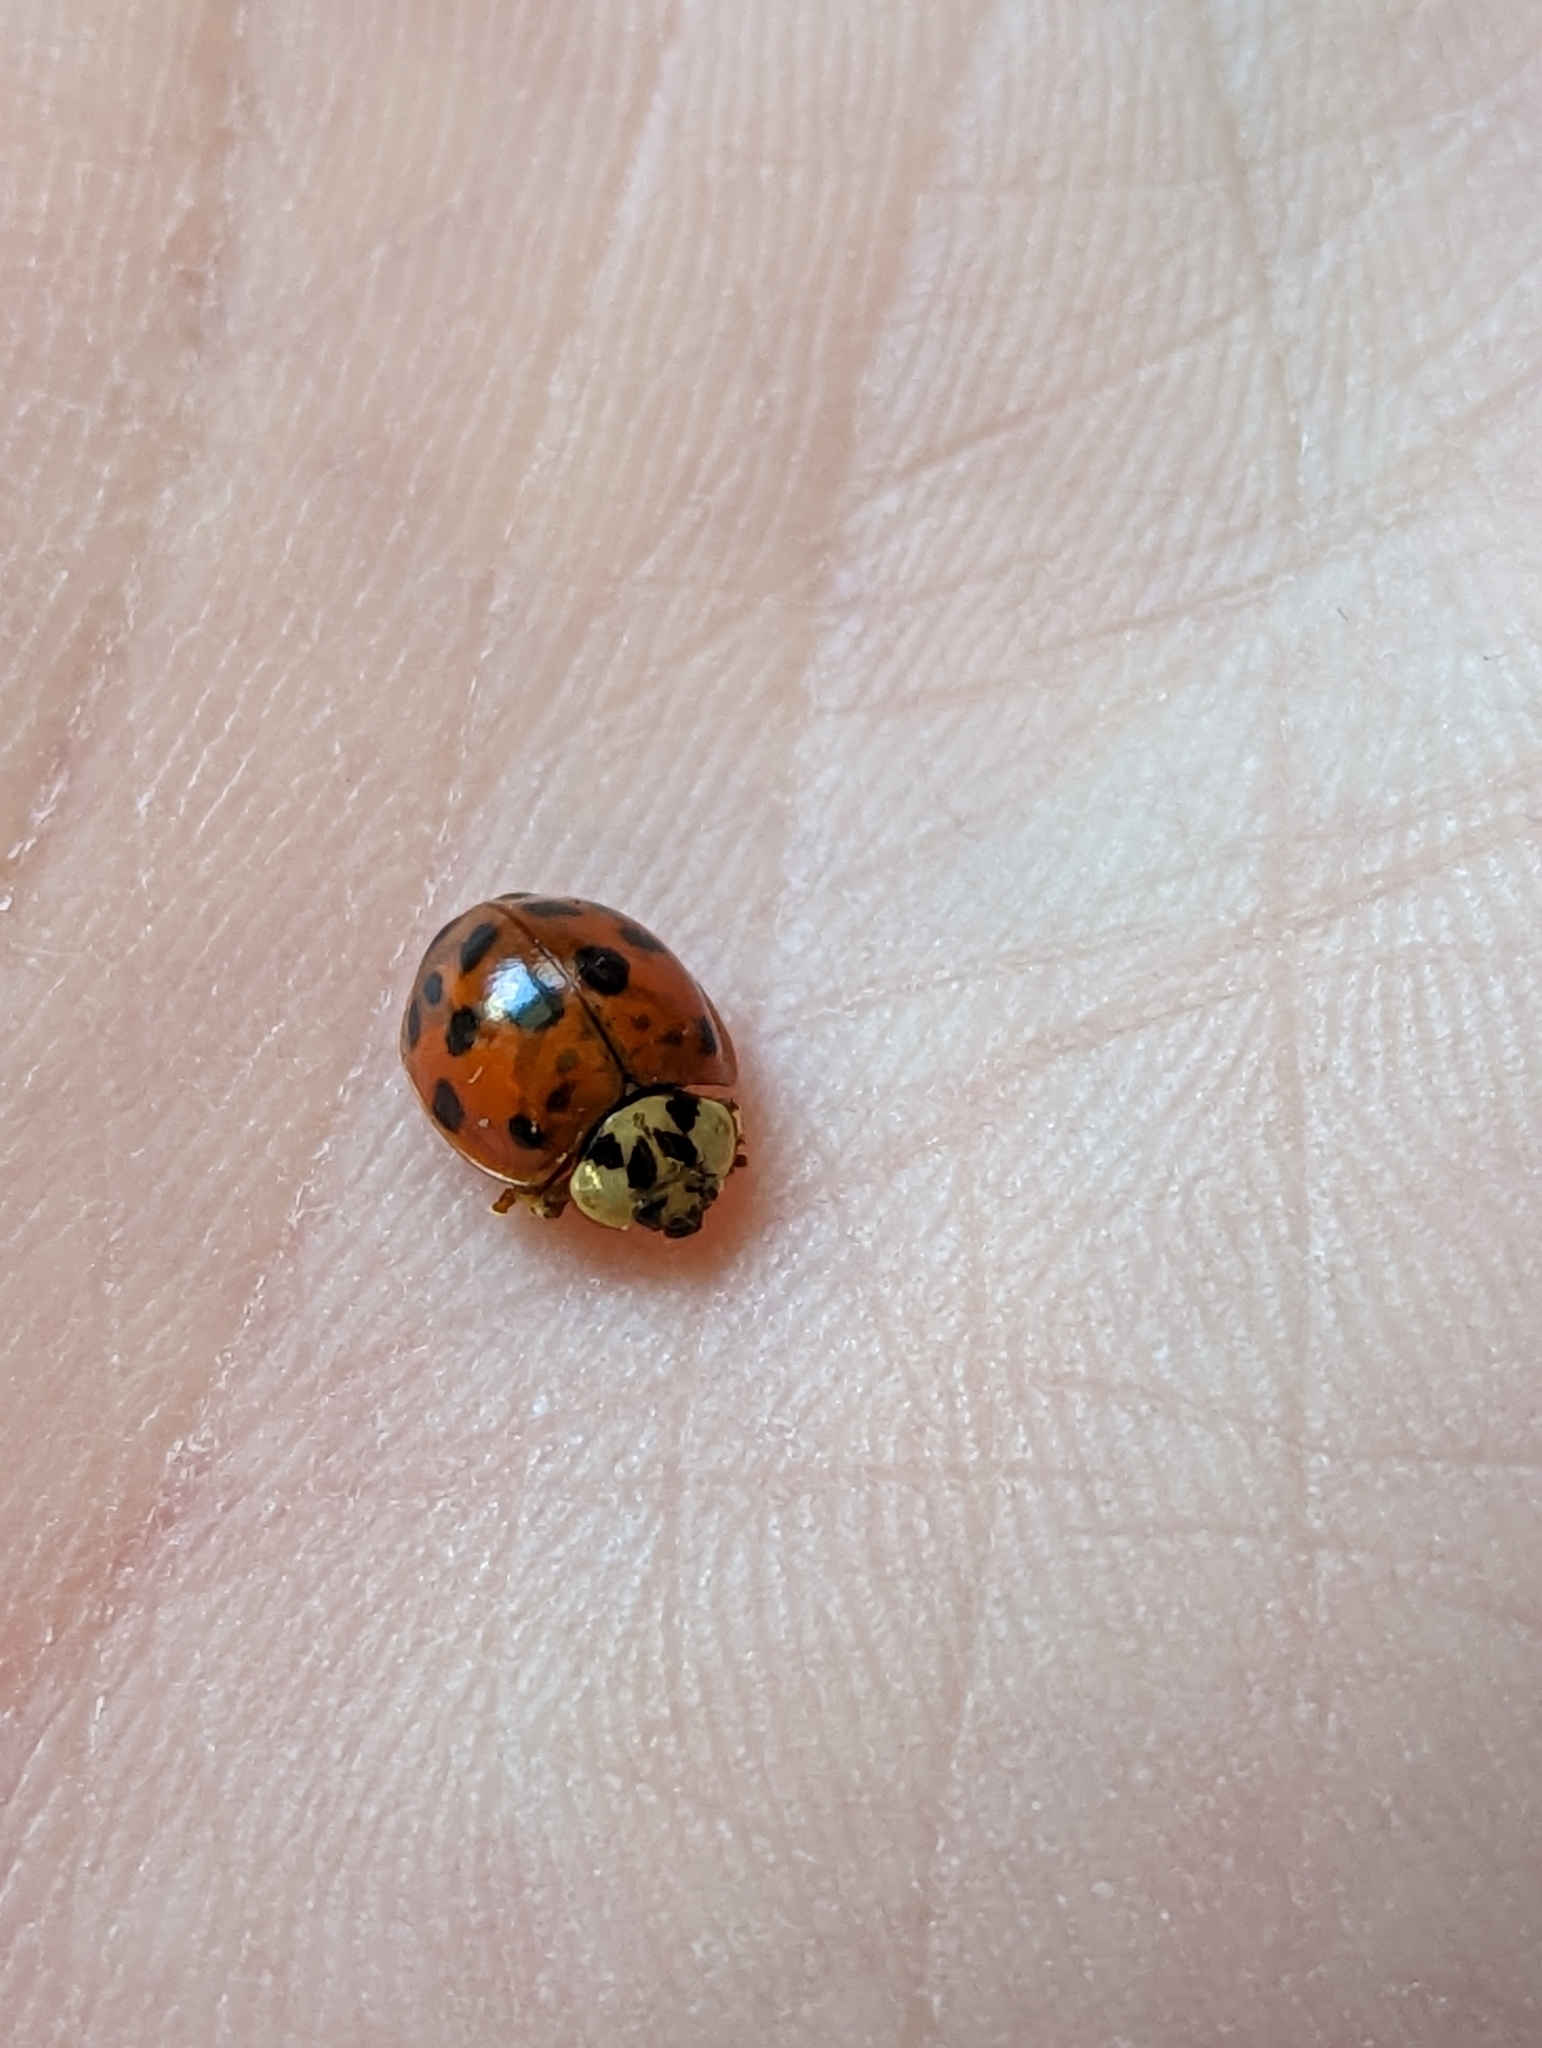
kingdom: Animalia
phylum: Arthropoda
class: Insecta
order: Coleoptera
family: Coccinellidae
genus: Harmonia
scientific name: Harmonia axyridis
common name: Harlequin ladybird
